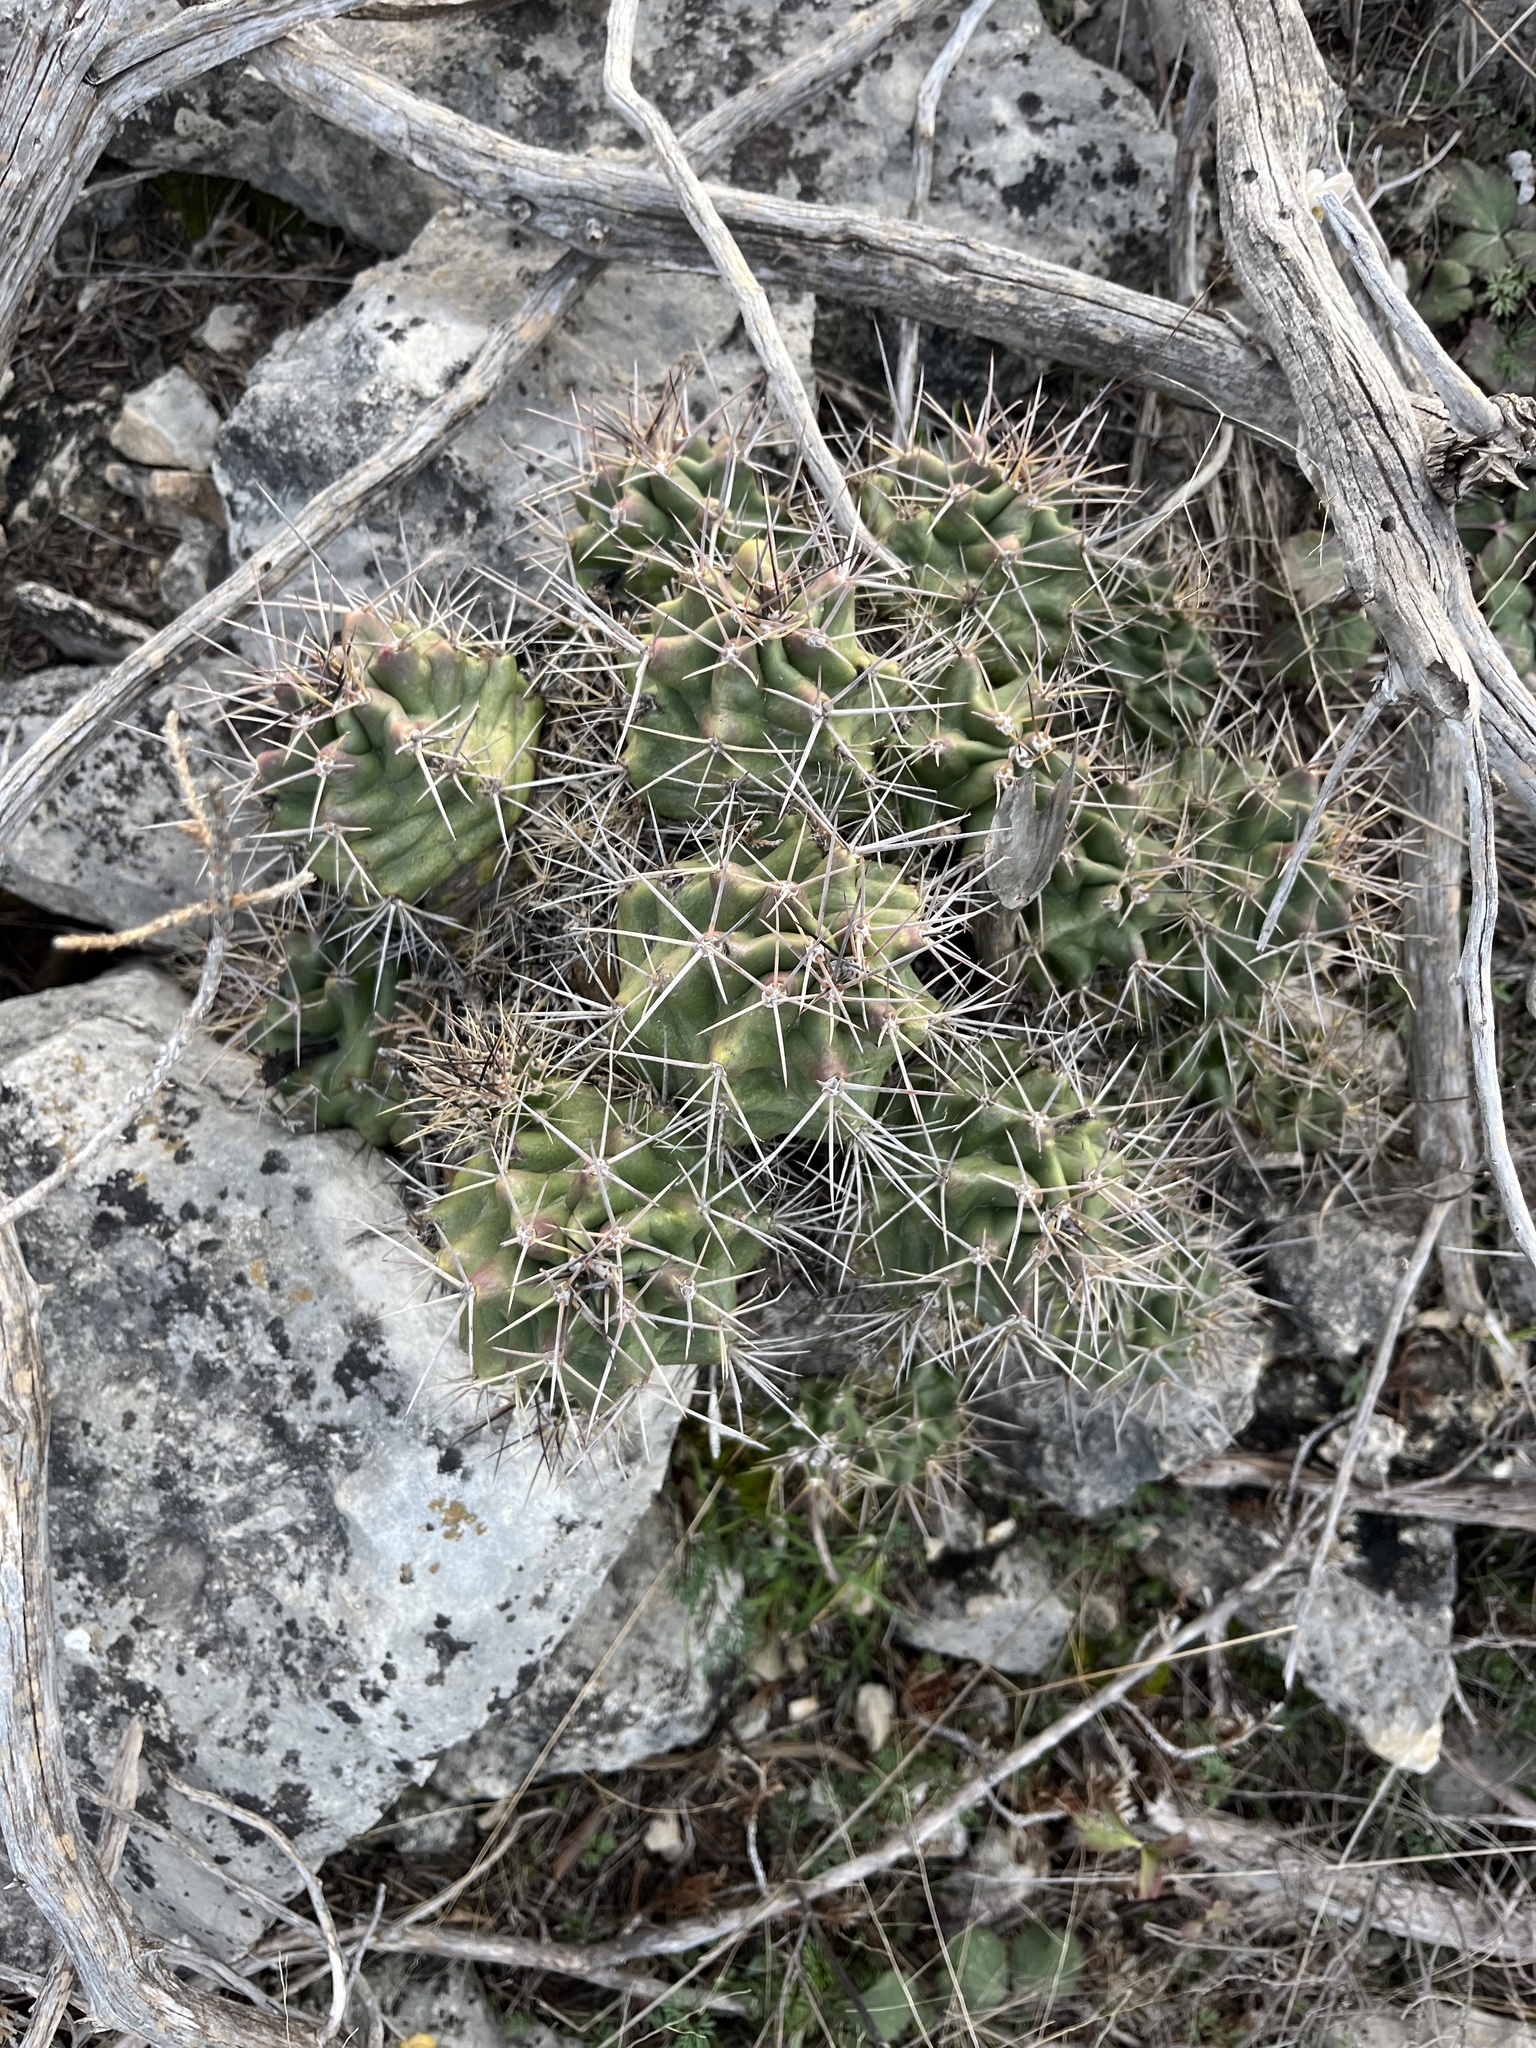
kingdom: Plantae
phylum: Tracheophyta
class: Magnoliopsida
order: Caryophyllales
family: Cactaceae
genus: Echinocereus
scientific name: Echinocereus coccineus
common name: Scarlet hedgehog cactus
